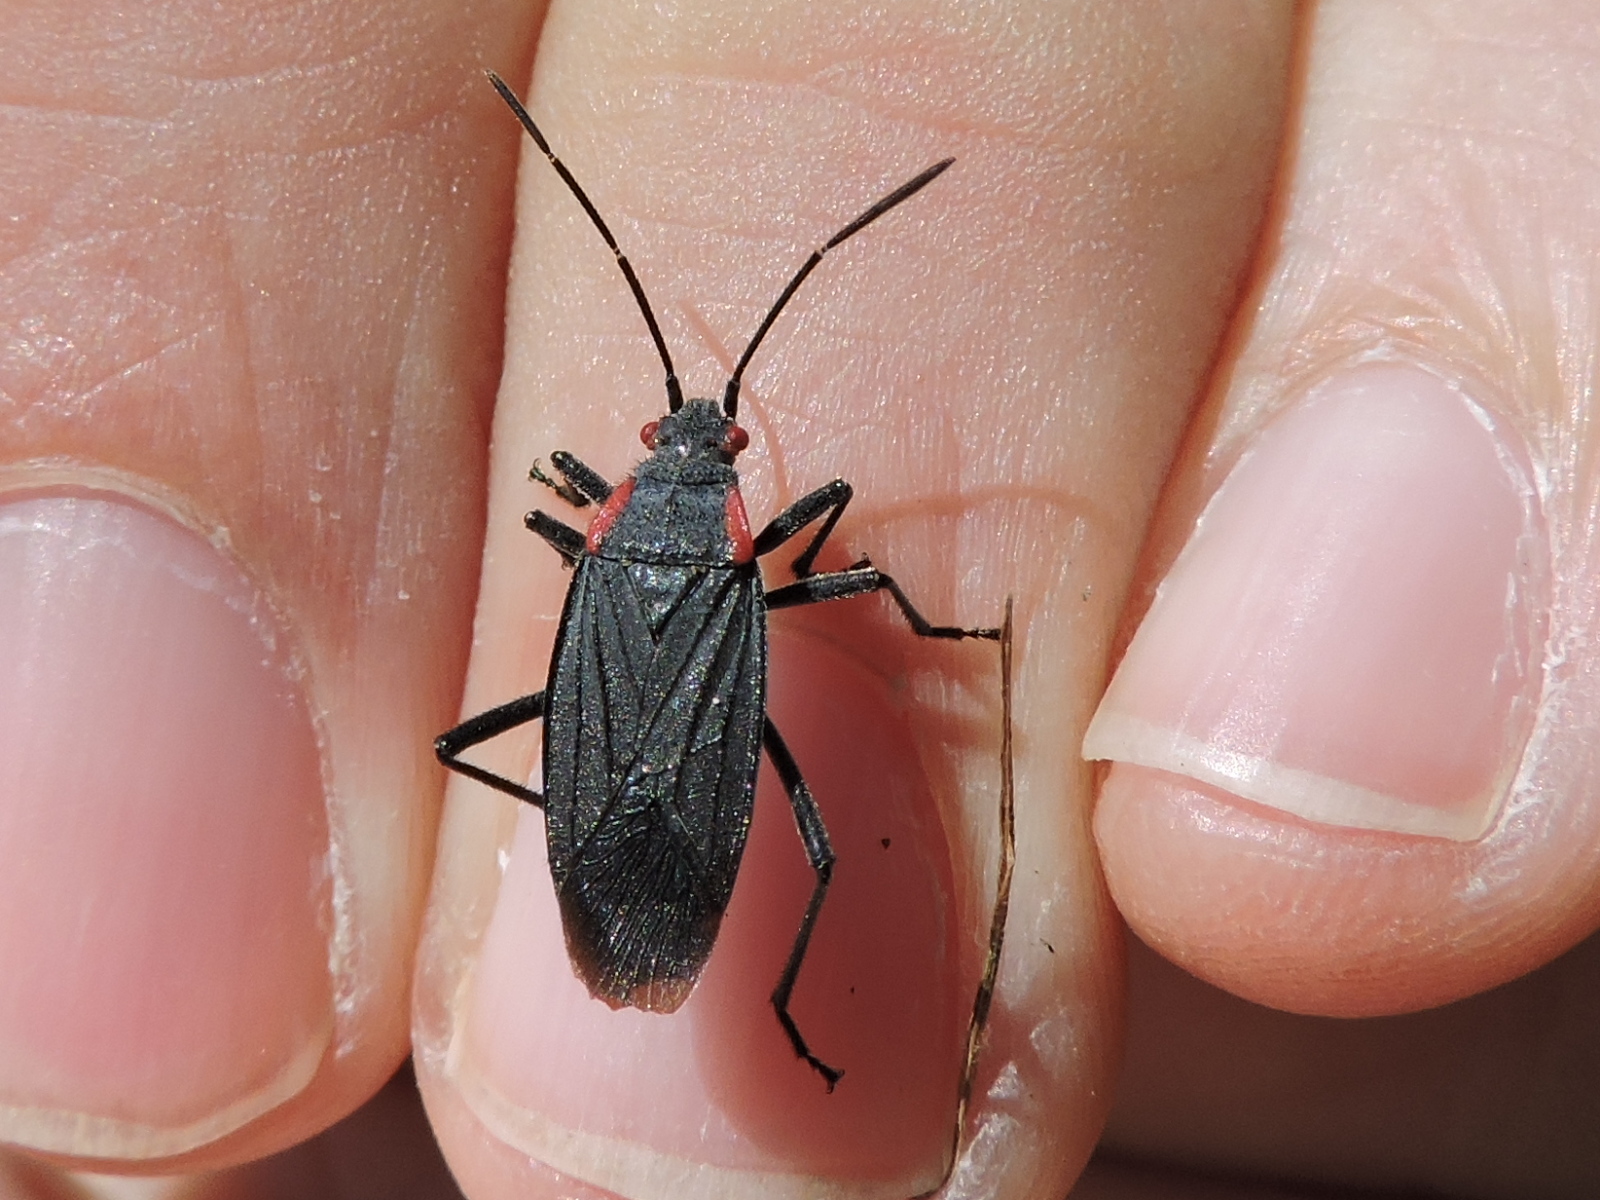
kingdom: Animalia
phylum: Arthropoda
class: Insecta
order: Hemiptera
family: Rhopalidae
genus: Jadera
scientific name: Jadera haematoloma
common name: Red-shouldered bug
